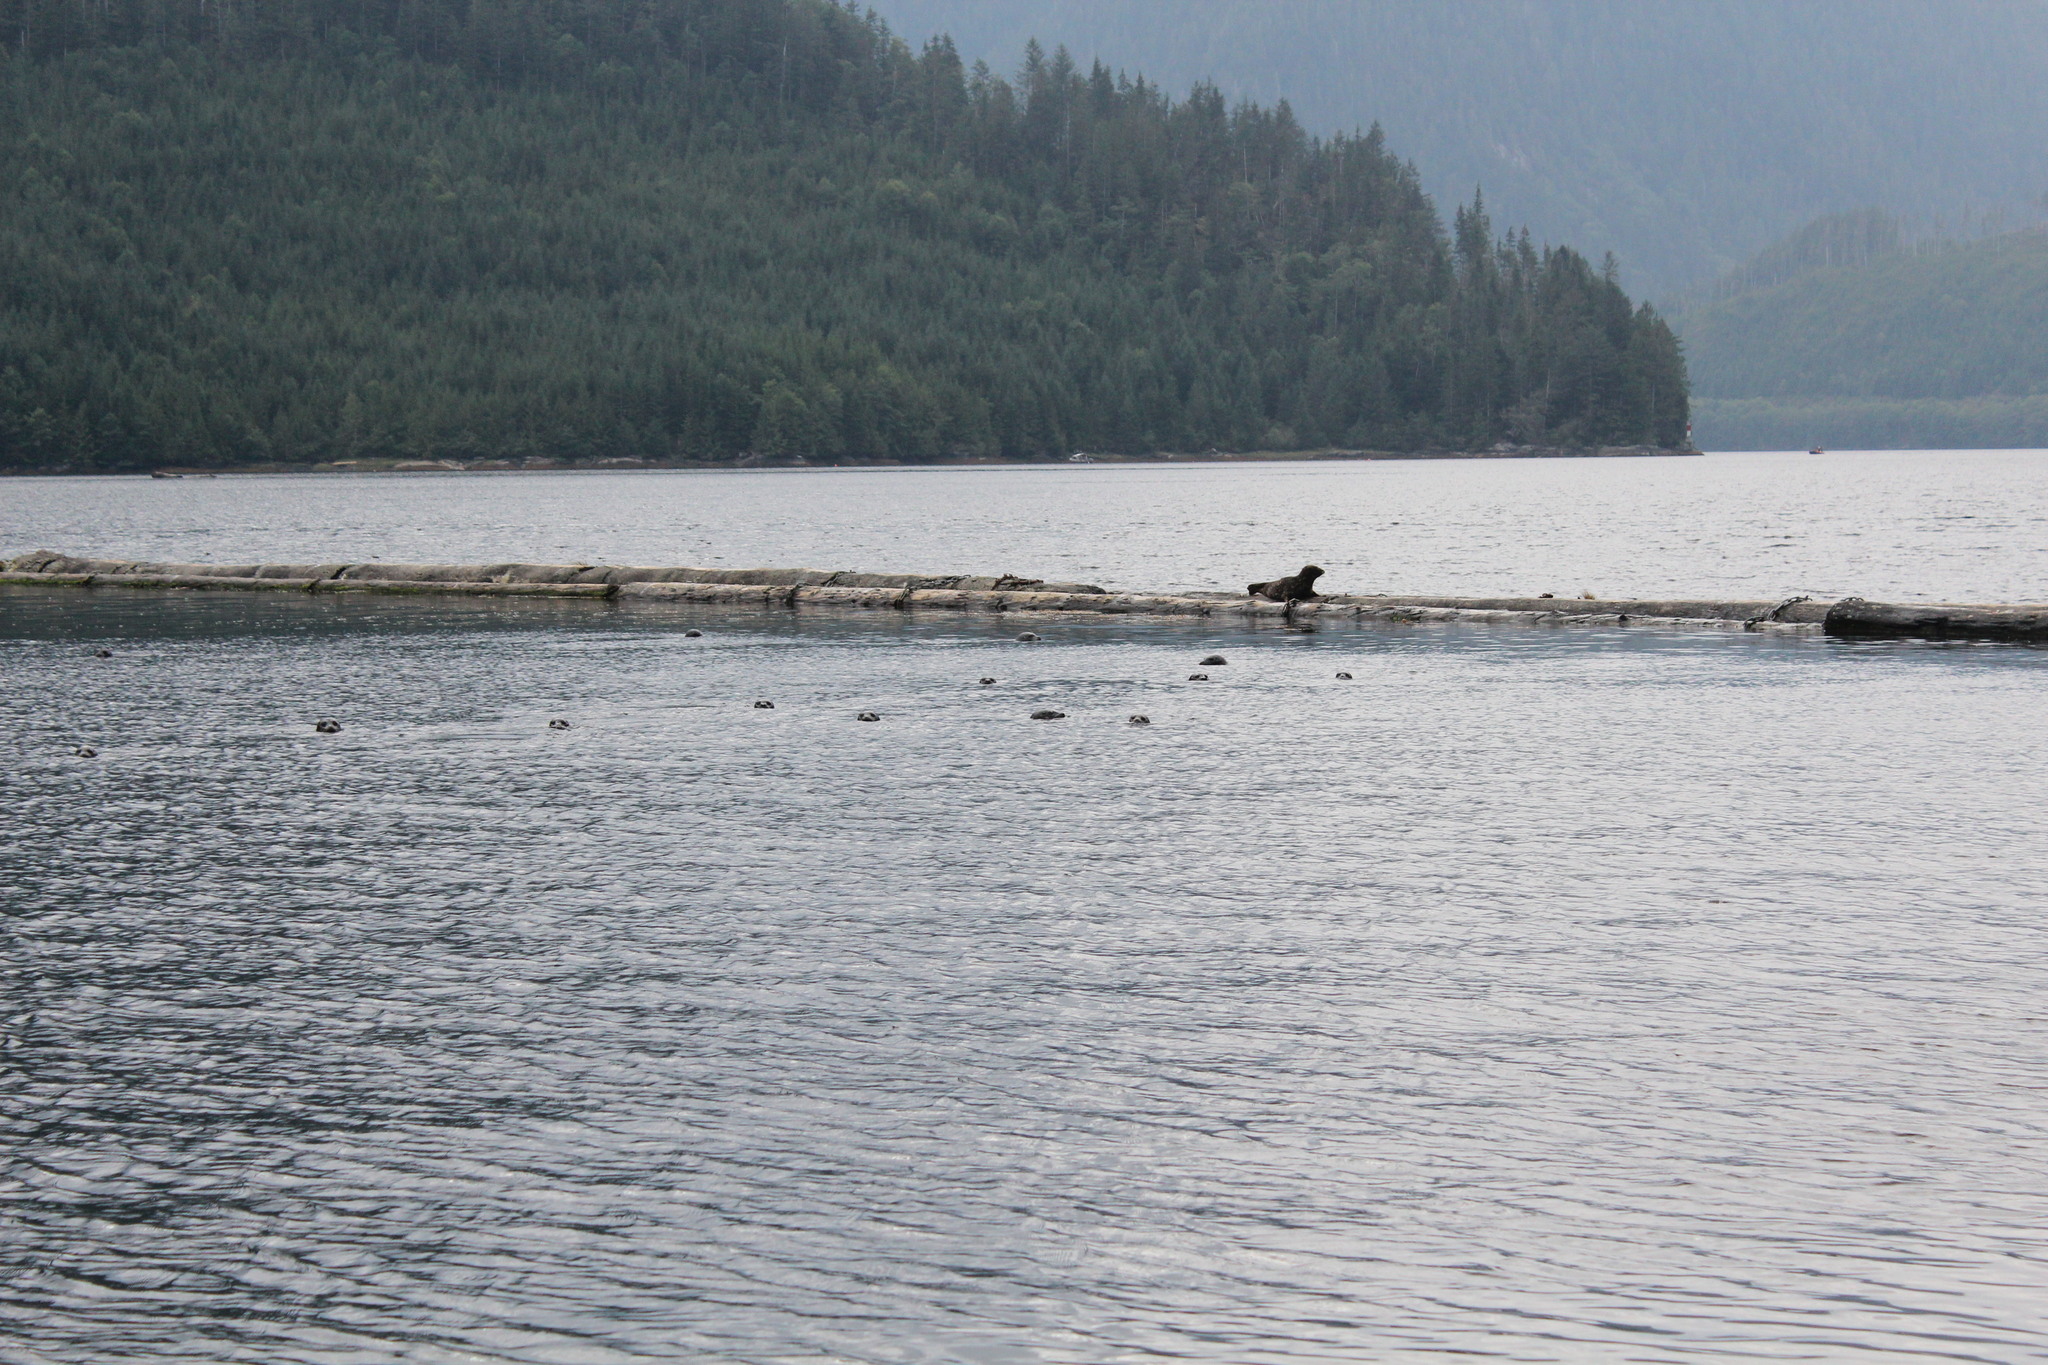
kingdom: Animalia
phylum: Chordata
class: Mammalia
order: Carnivora
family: Phocidae
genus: Phoca
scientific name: Phoca vitulina
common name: Harbor seal
